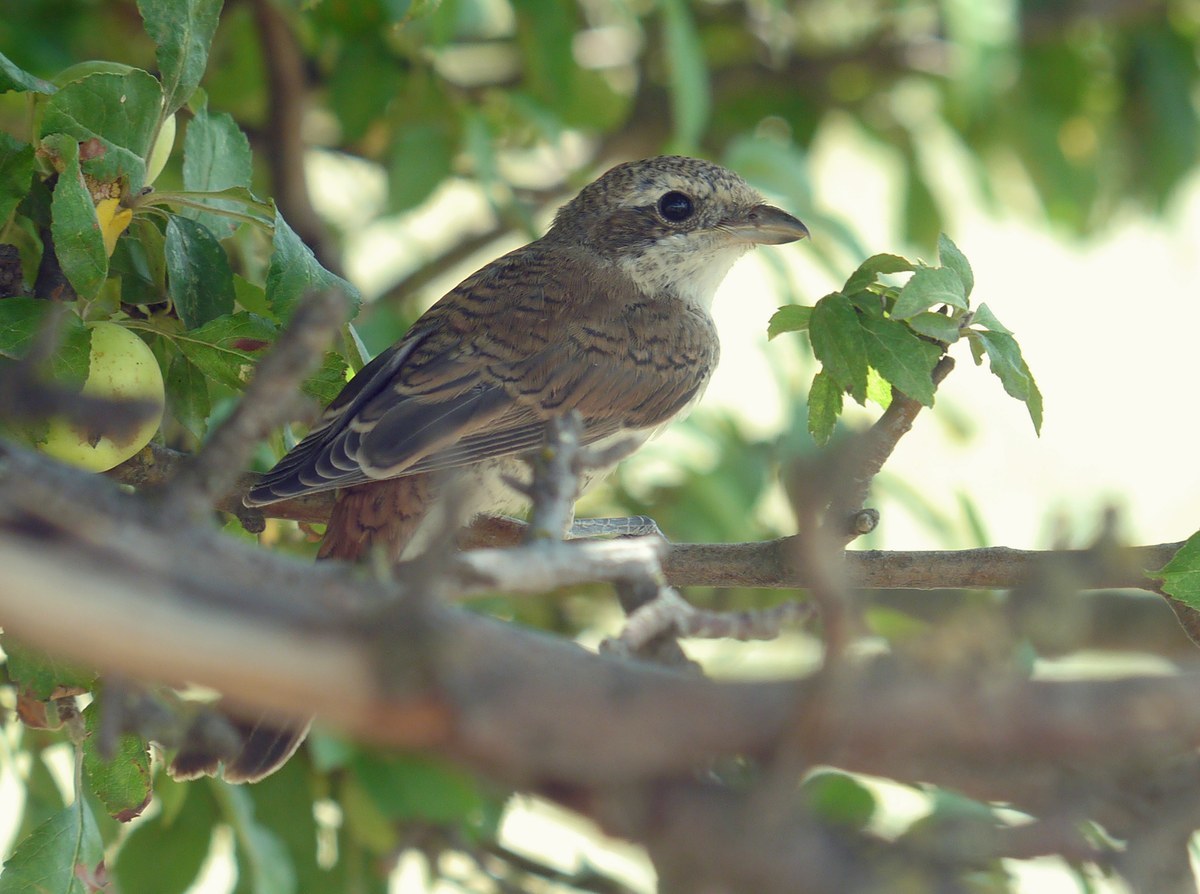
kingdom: Animalia
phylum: Chordata
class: Aves
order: Passeriformes
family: Laniidae
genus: Lanius
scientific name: Lanius collurio
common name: Red-backed shrike
